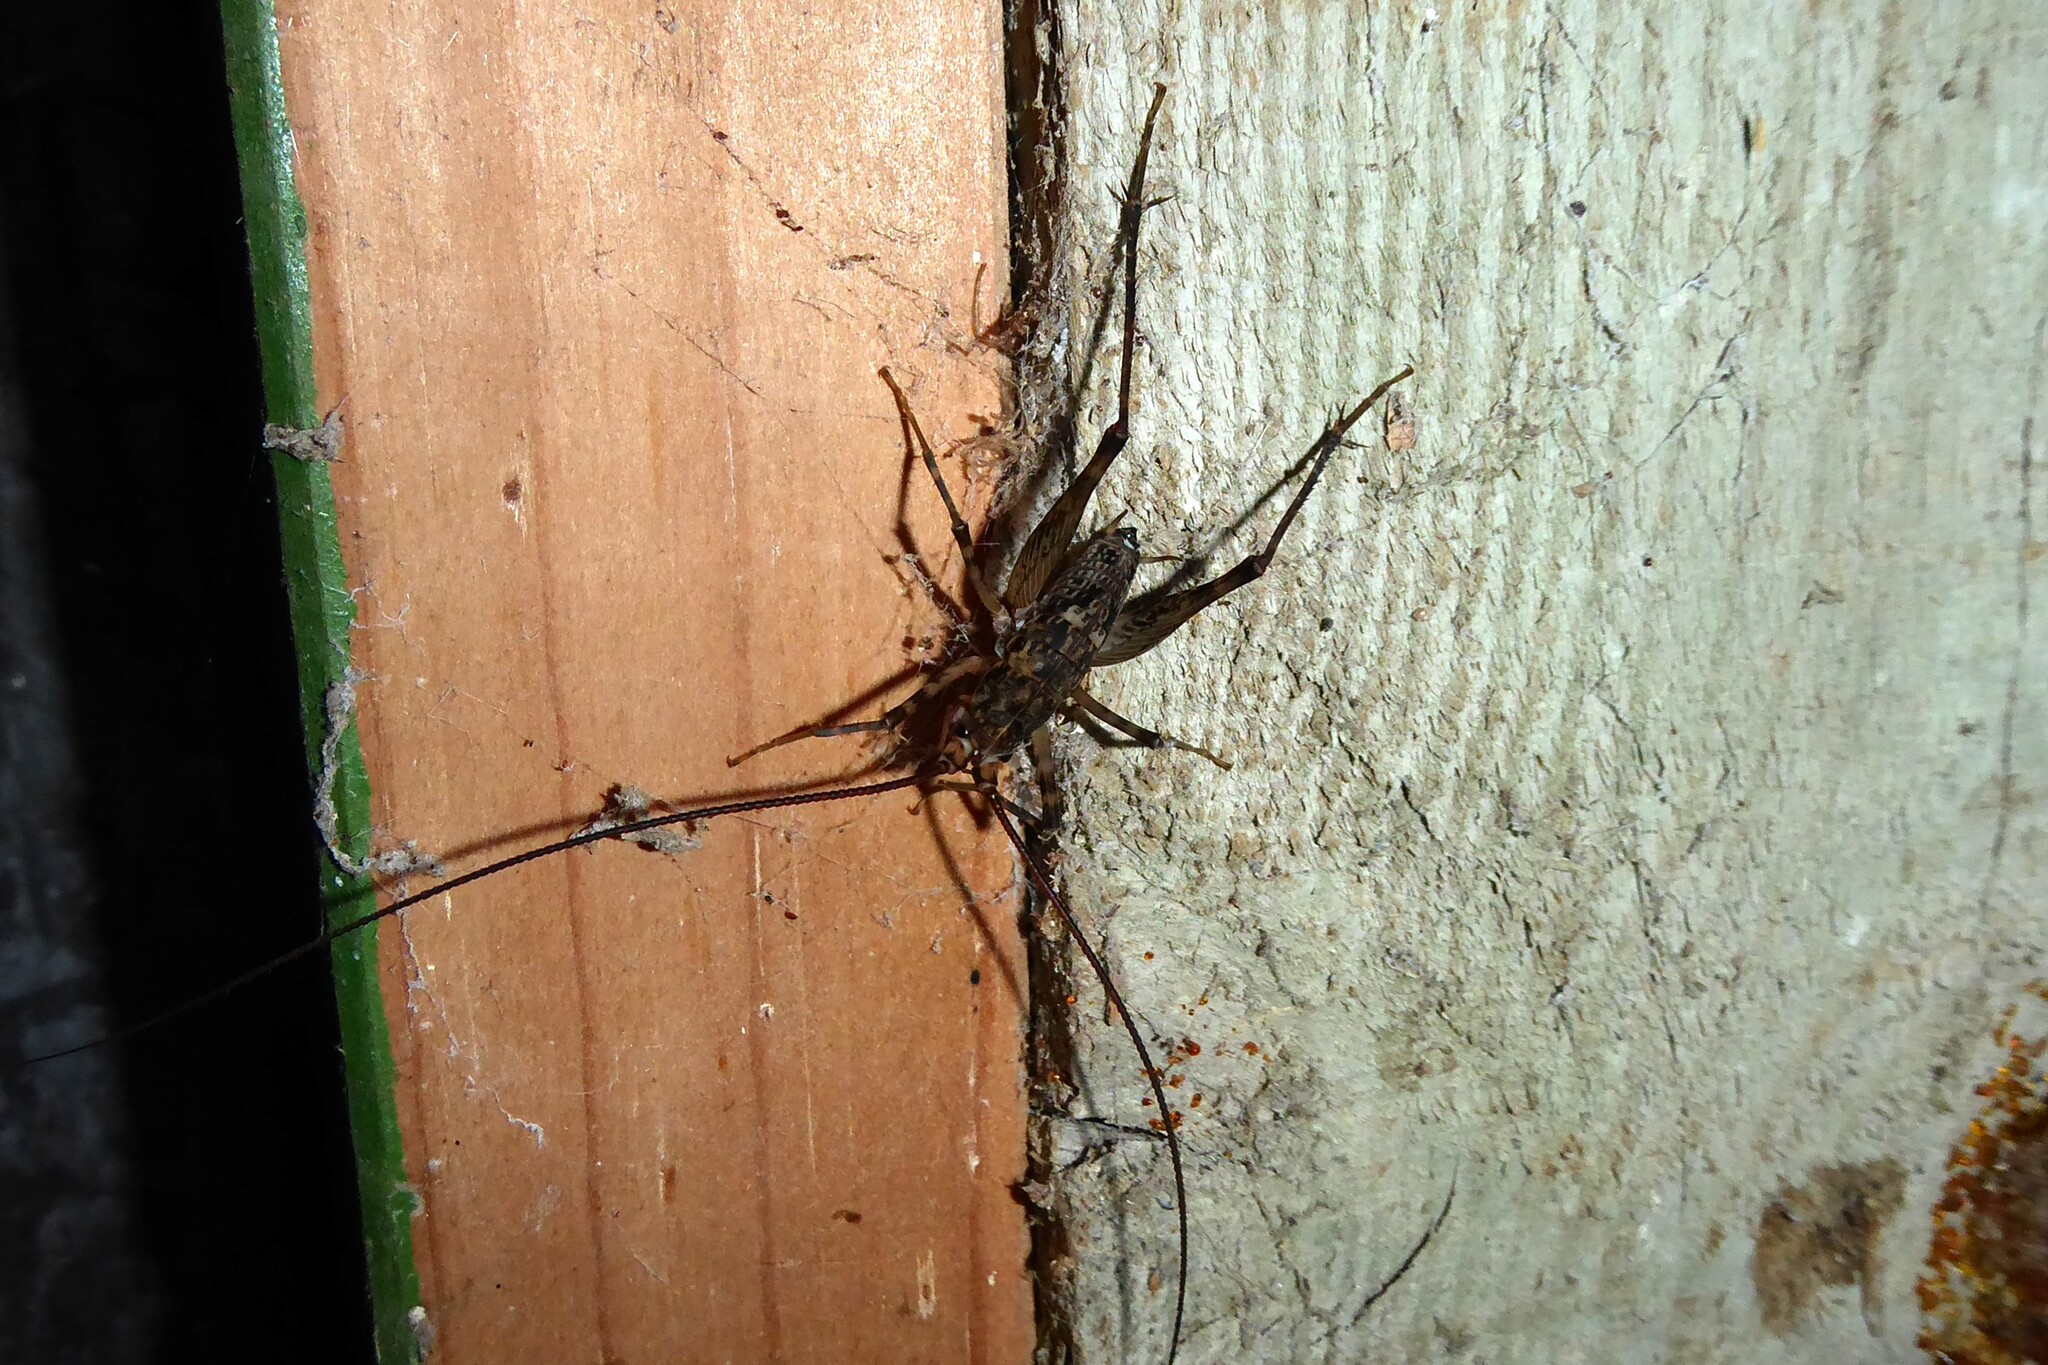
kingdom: Animalia
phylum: Arthropoda
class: Insecta
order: Orthoptera
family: Rhaphidophoridae
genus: Pleioplectron
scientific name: Pleioplectron simplex
